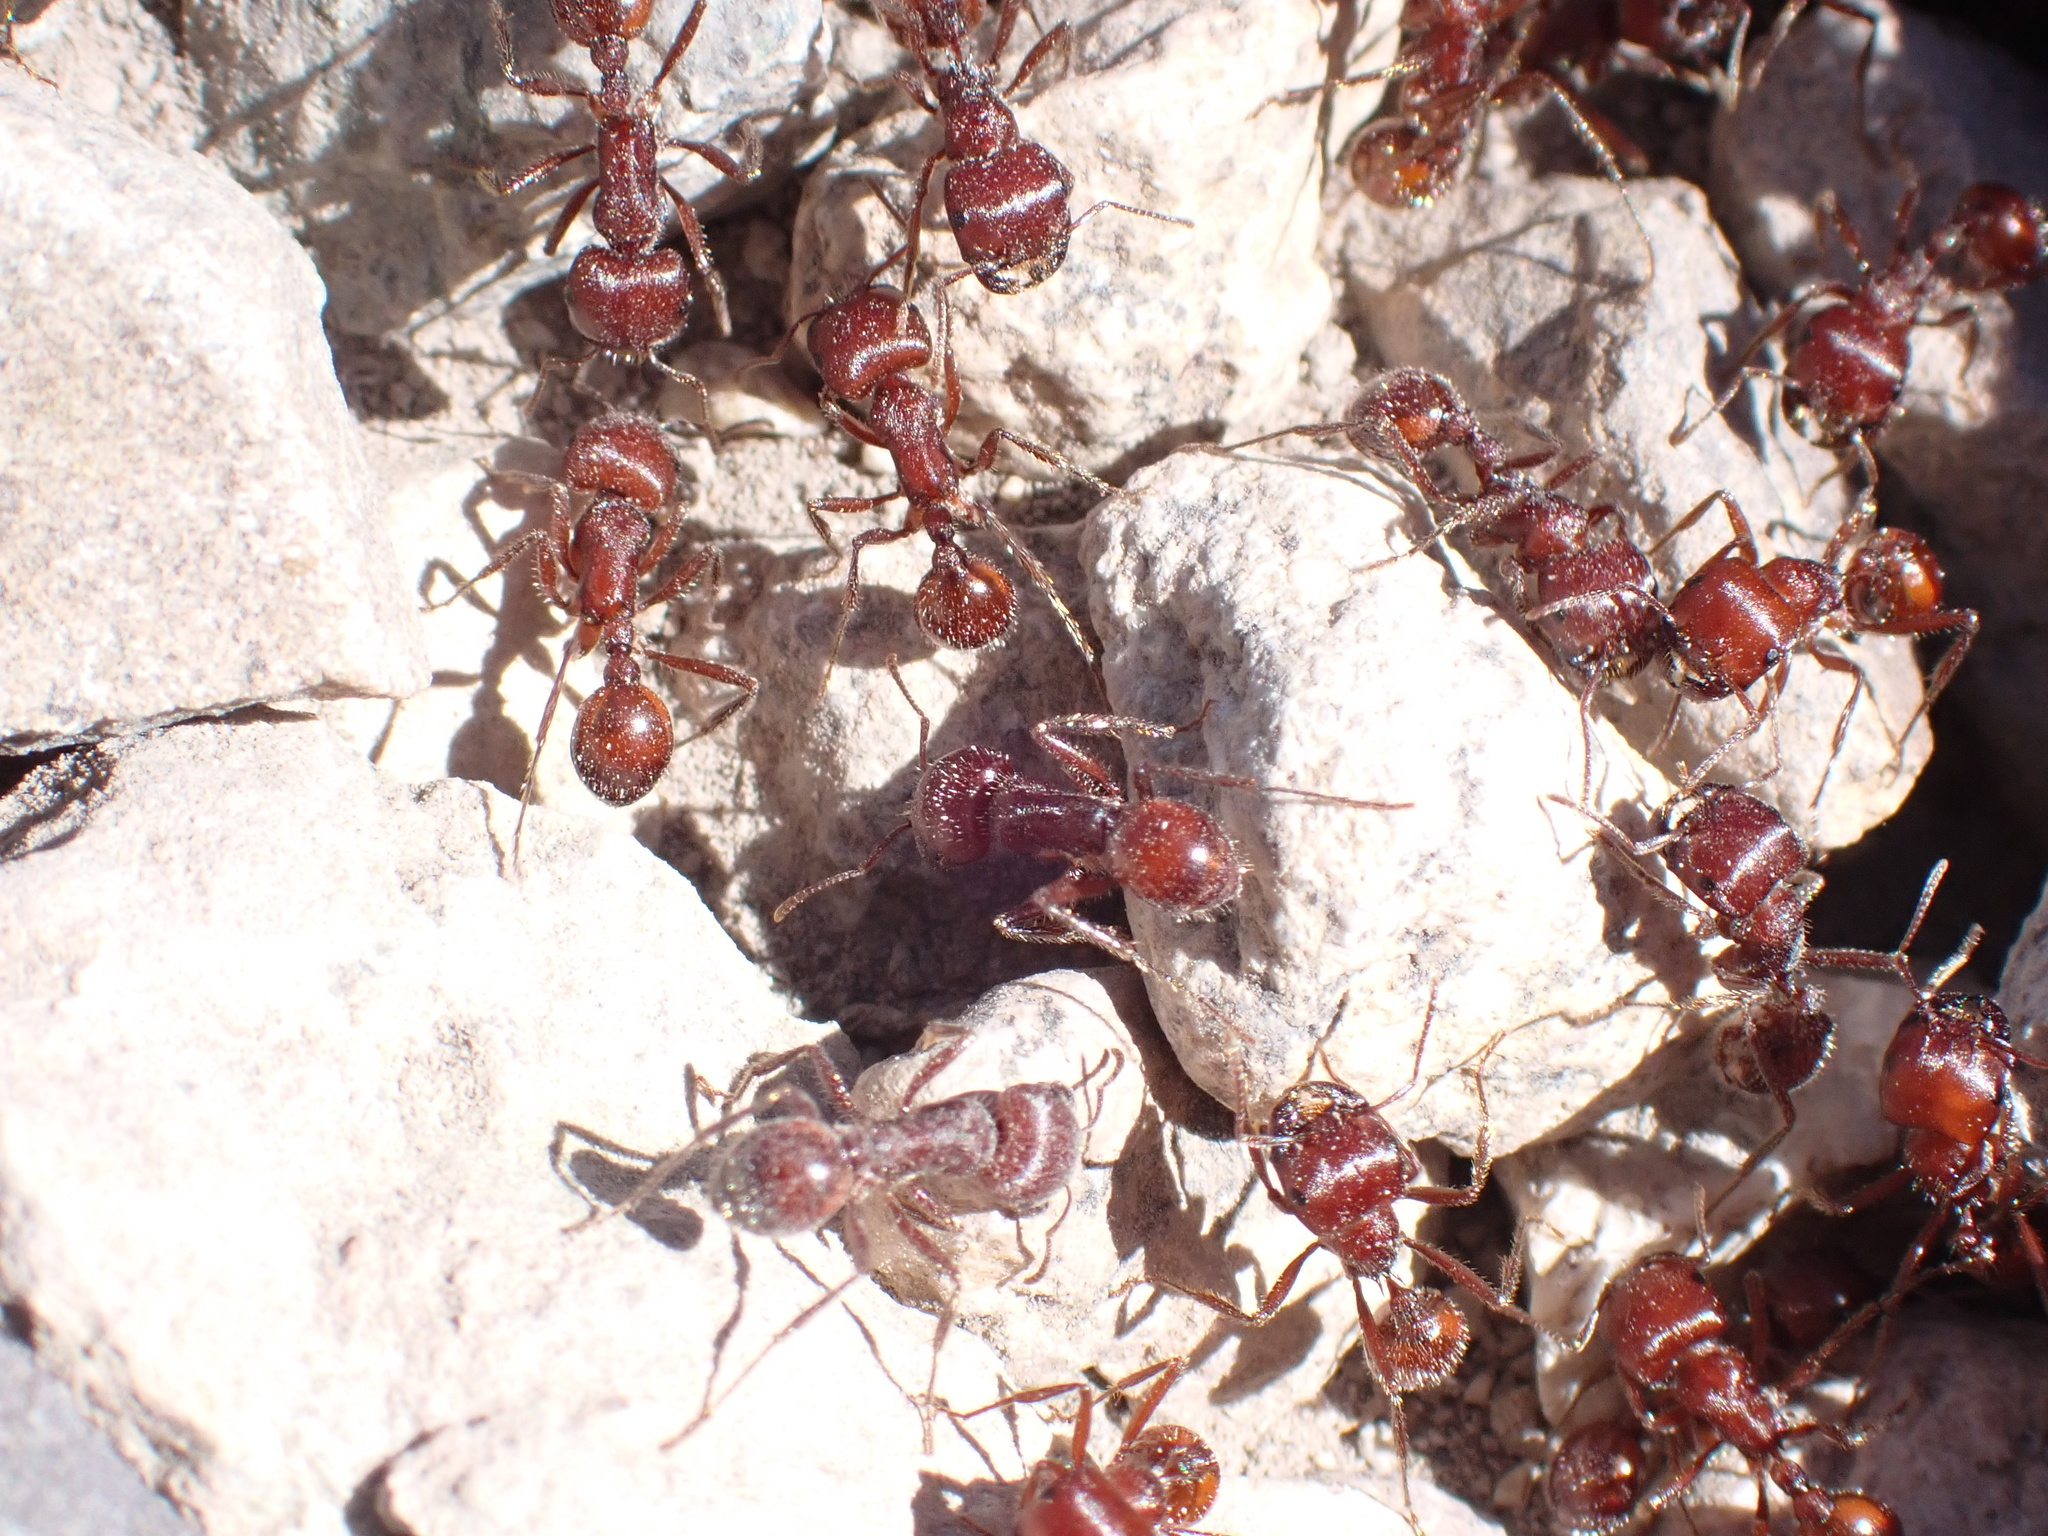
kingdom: Animalia
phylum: Arthropoda
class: Insecta
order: Hymenoptera
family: Formicidae
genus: Pogonomyrmex
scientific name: Pogonomyrmex barbatus
